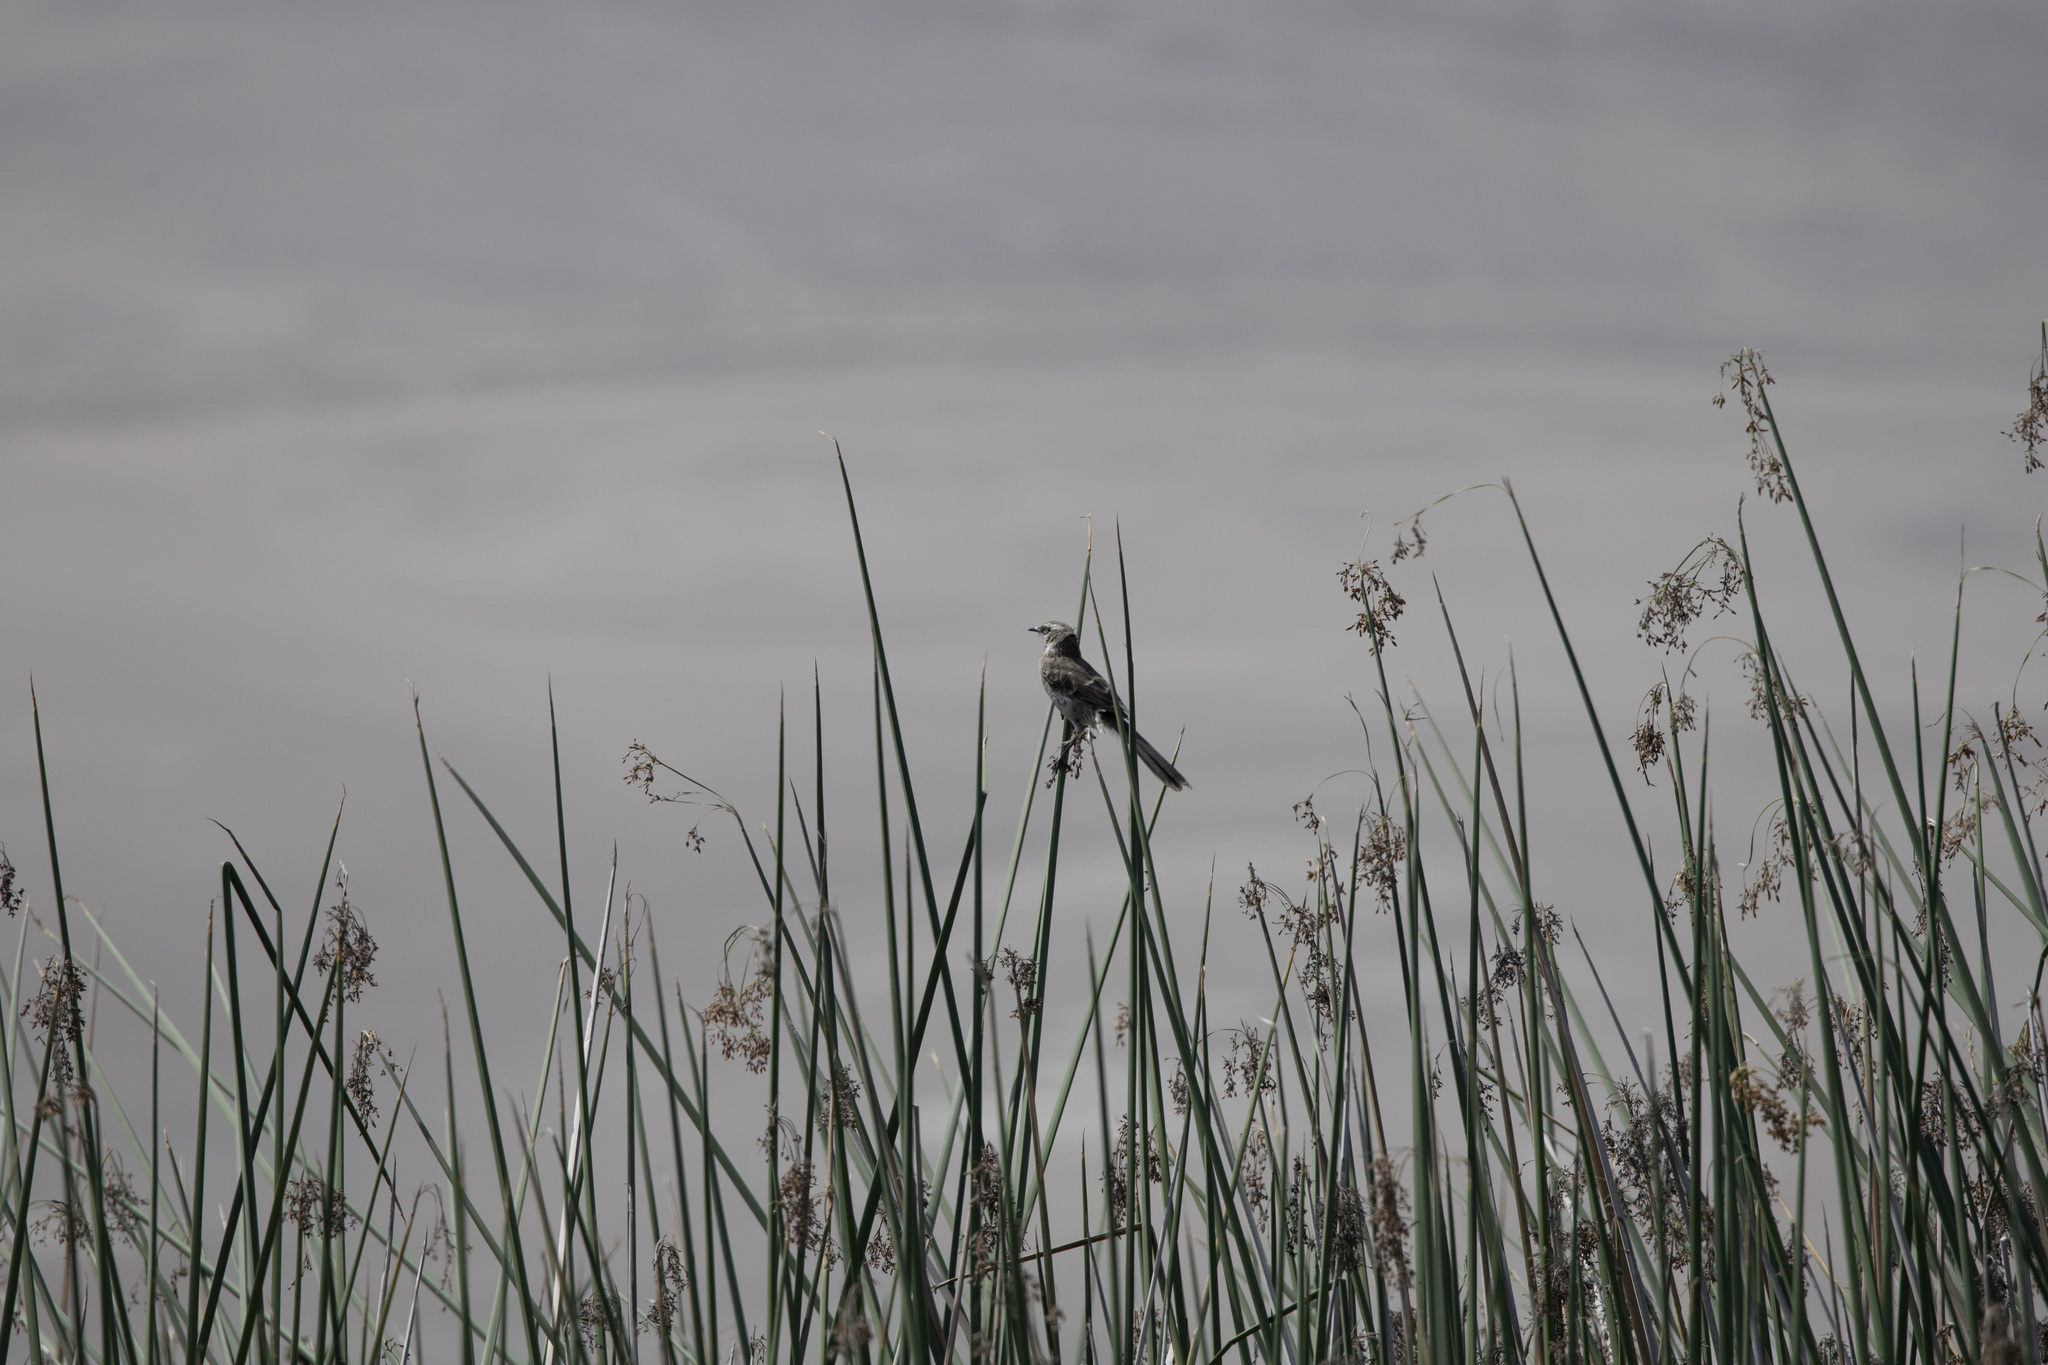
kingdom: Animalia
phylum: Chordata
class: Aves
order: Passeriformes
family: Mimidae
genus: Mimus
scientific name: Mimus longicaudatus
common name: Long-tailed mockingbird
